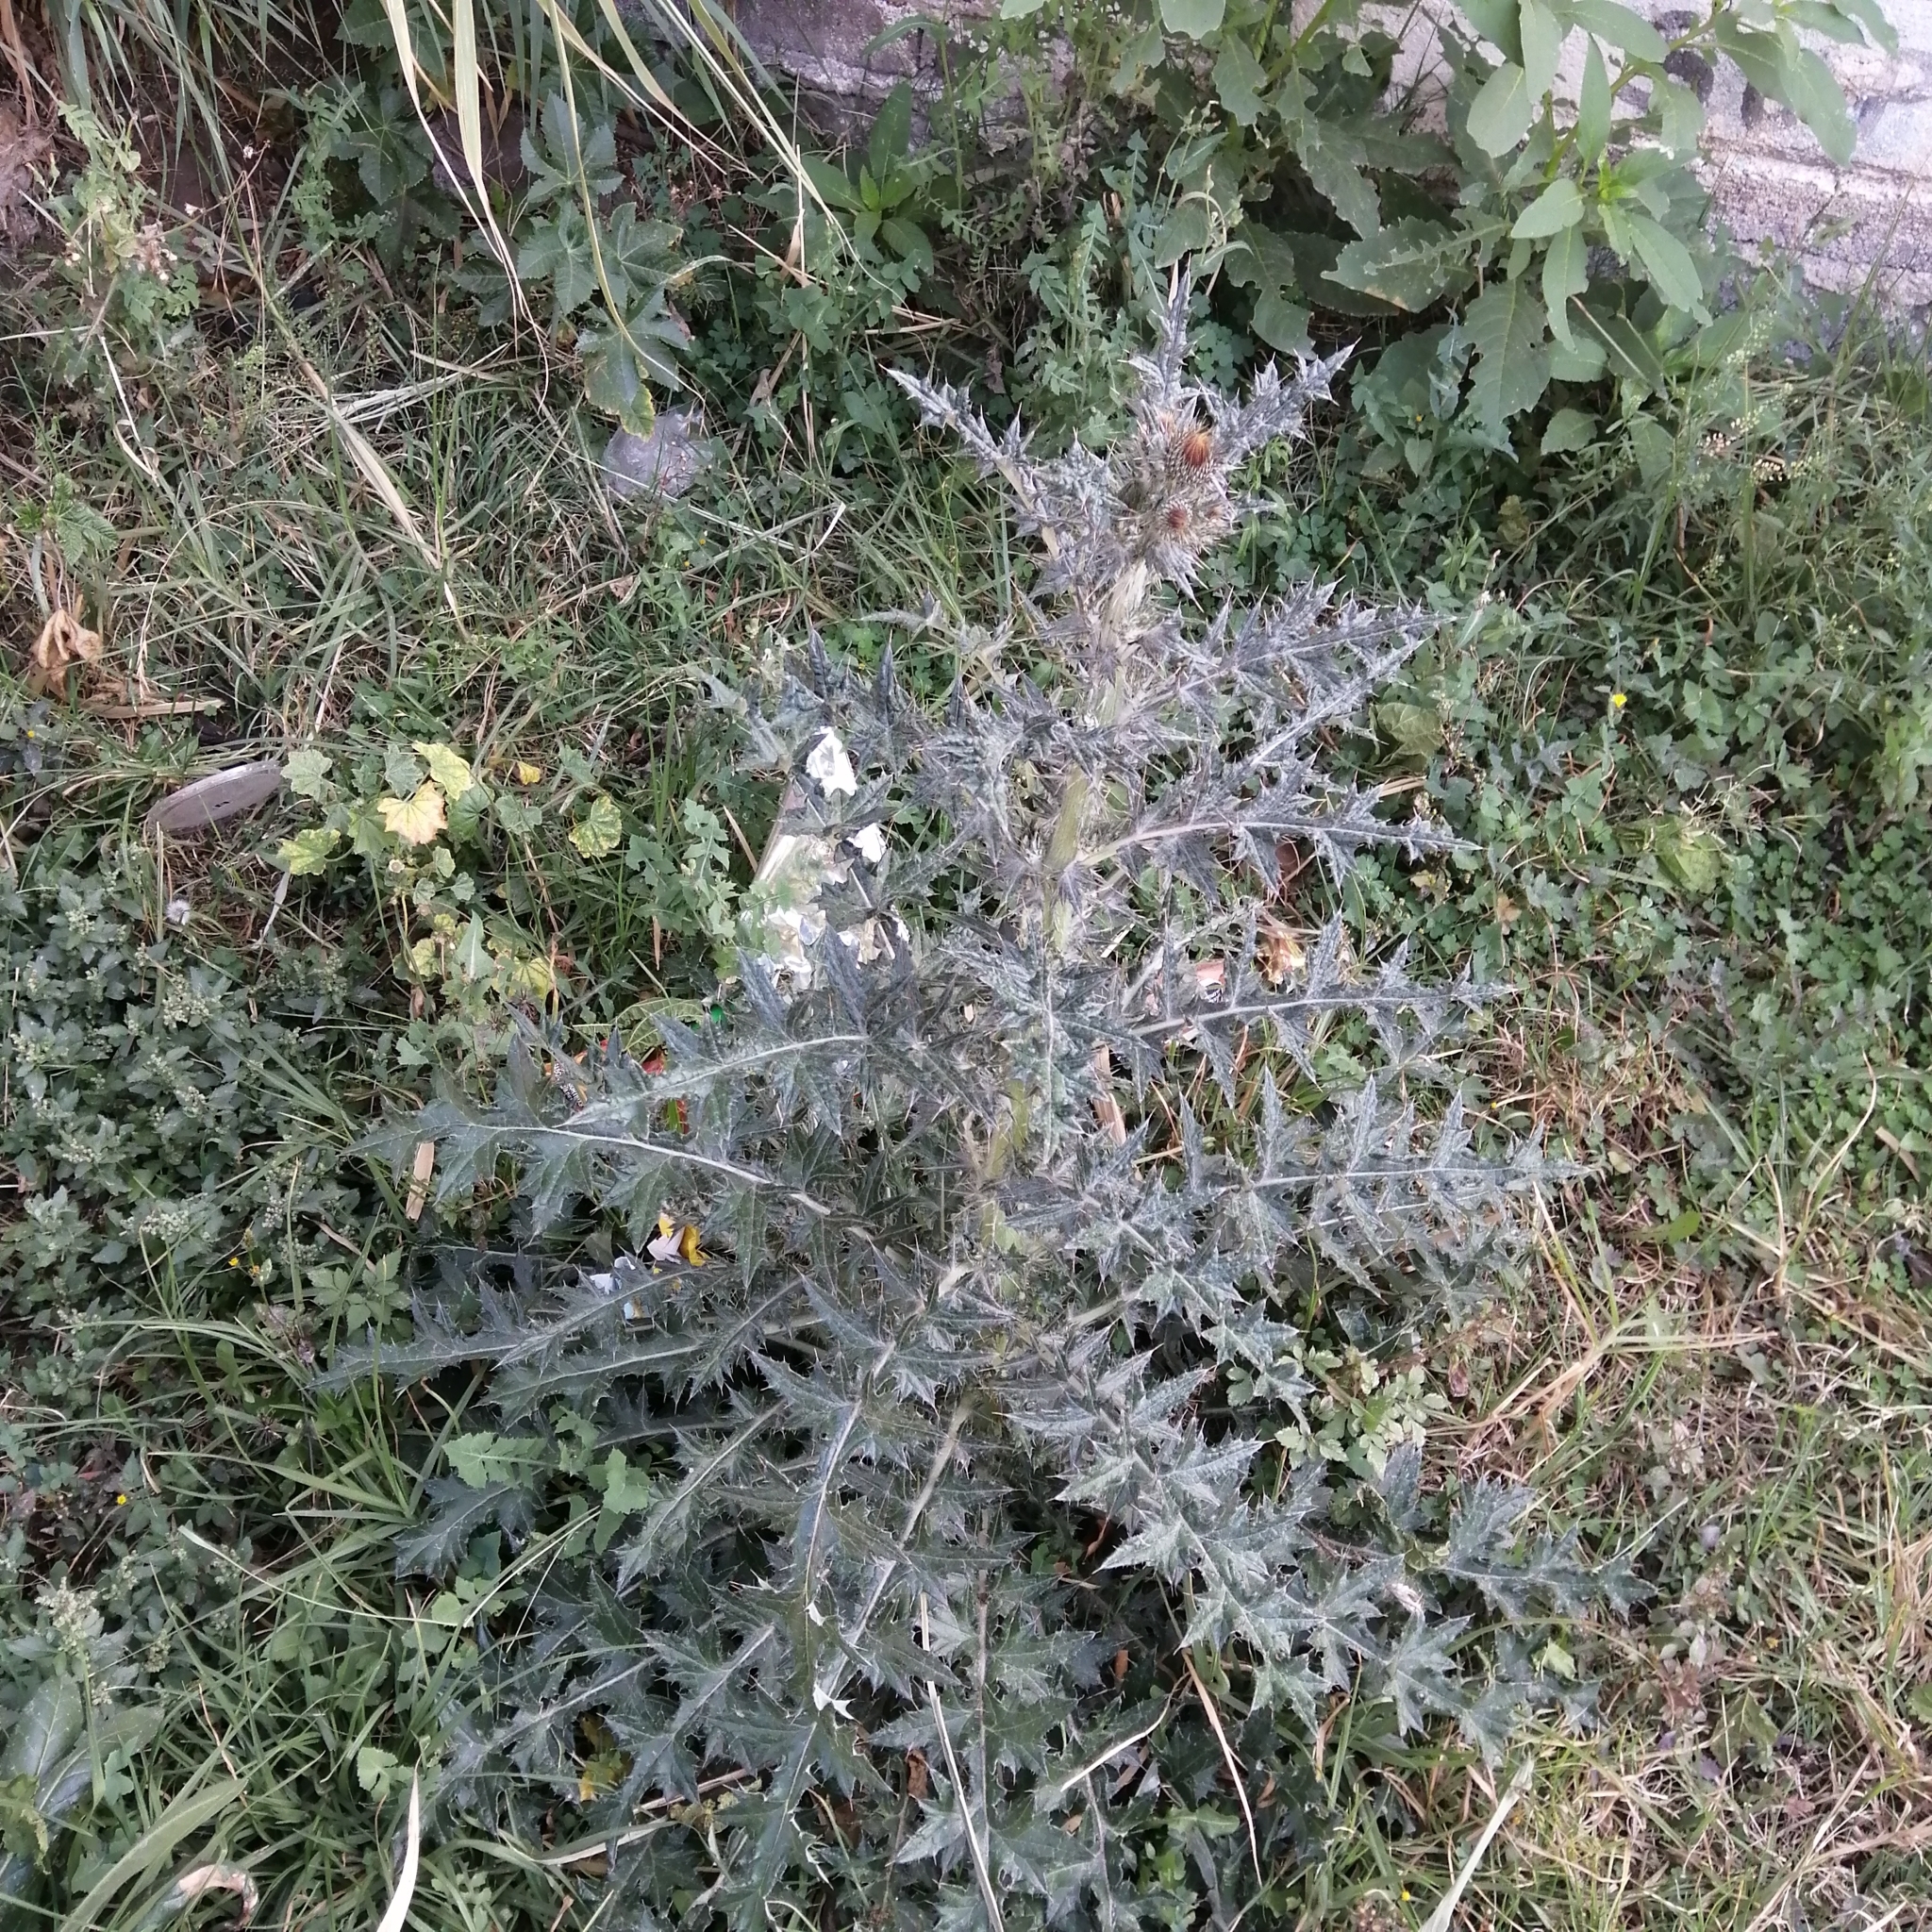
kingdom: Plantae
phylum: Tracheophyta
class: Magnoliopsida
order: Asterales
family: Asteraceae
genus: Cirsium
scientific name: Cirsium ehrenbergii
